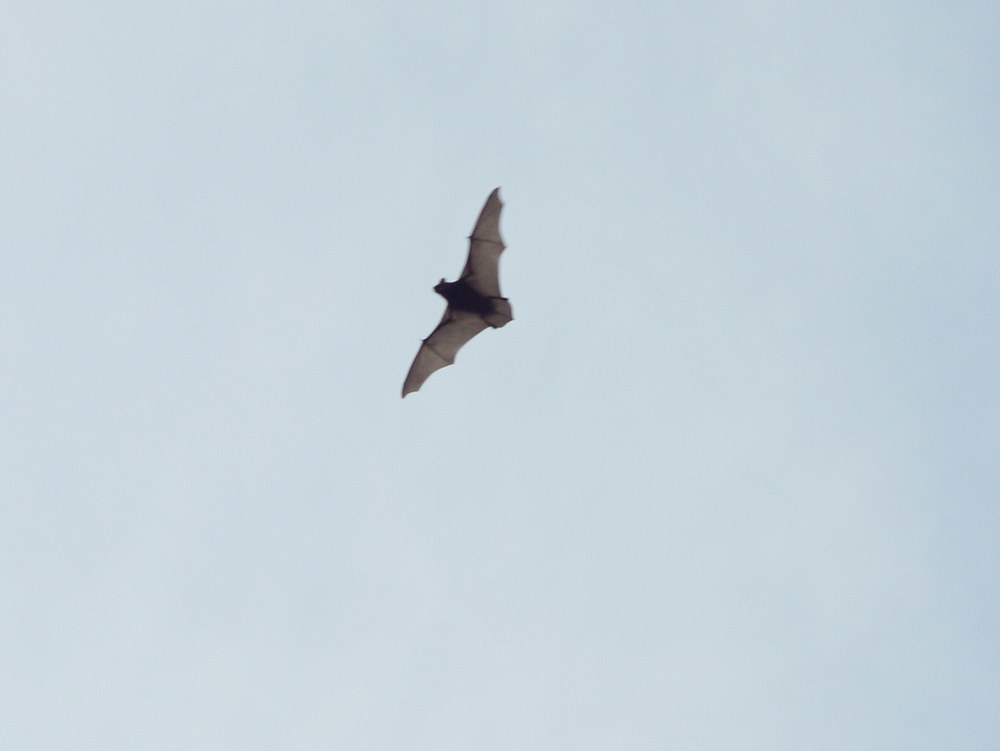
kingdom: Animalia
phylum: Chordata
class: Mammalia
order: Chiroptera
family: Vespertilionidae
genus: Nyctalus
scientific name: Nyctalus
